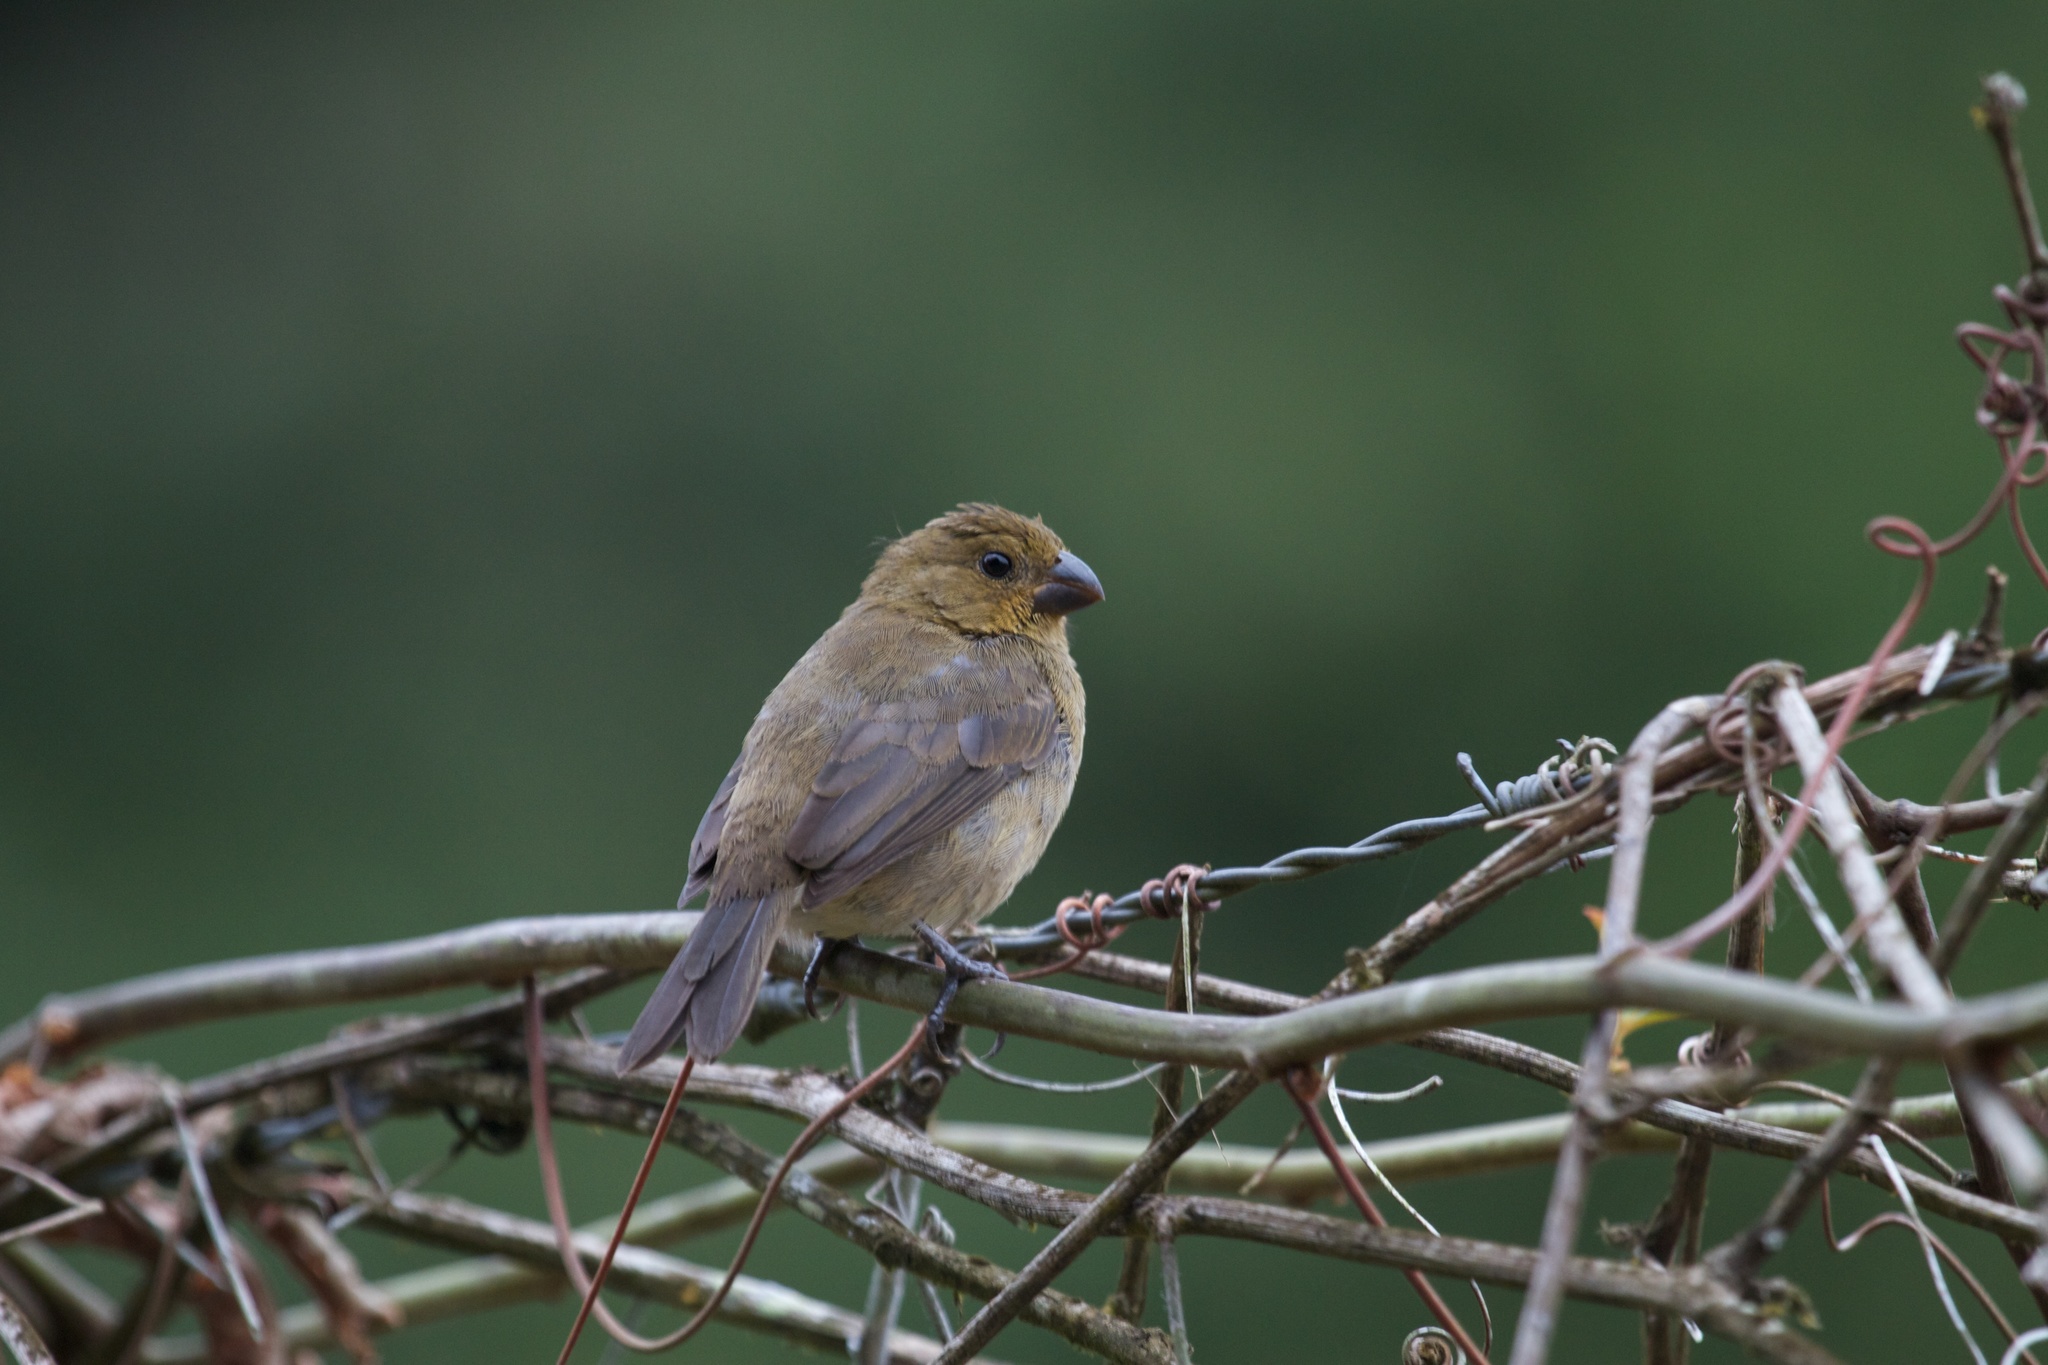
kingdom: Animalia
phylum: Chordata
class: Aves
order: Passeriformes
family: Thraupidae
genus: Sporophila
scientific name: Sporophila corvina
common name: Variable seedeater
